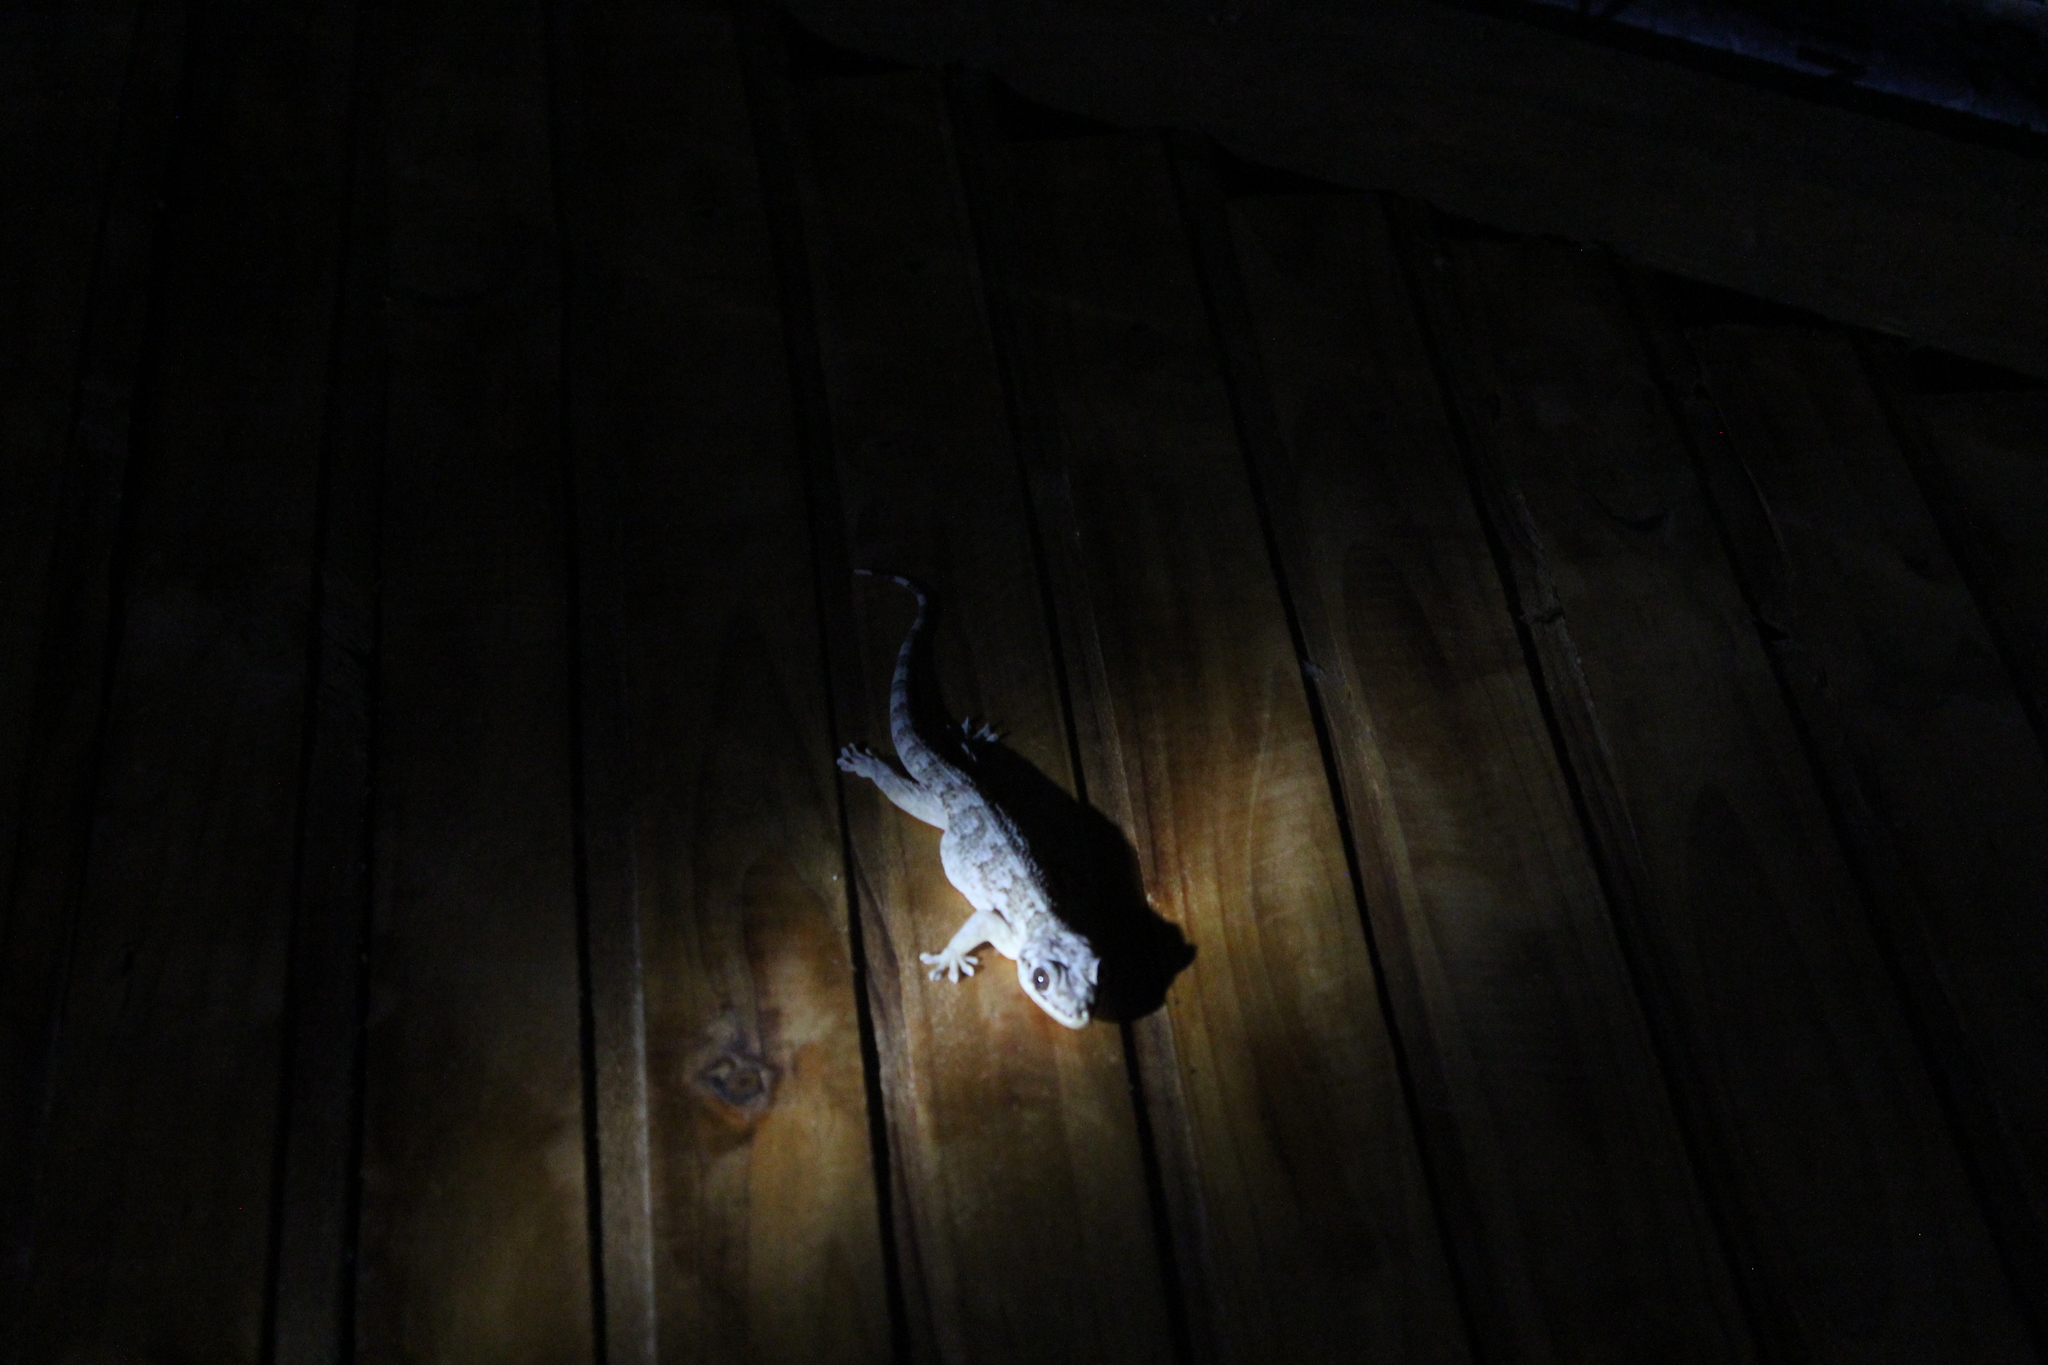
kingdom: Animalia
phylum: Chordata
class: Squamata
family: Gekkonidae
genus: Hemidactylus
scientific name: Hemidactylus mercatorius
